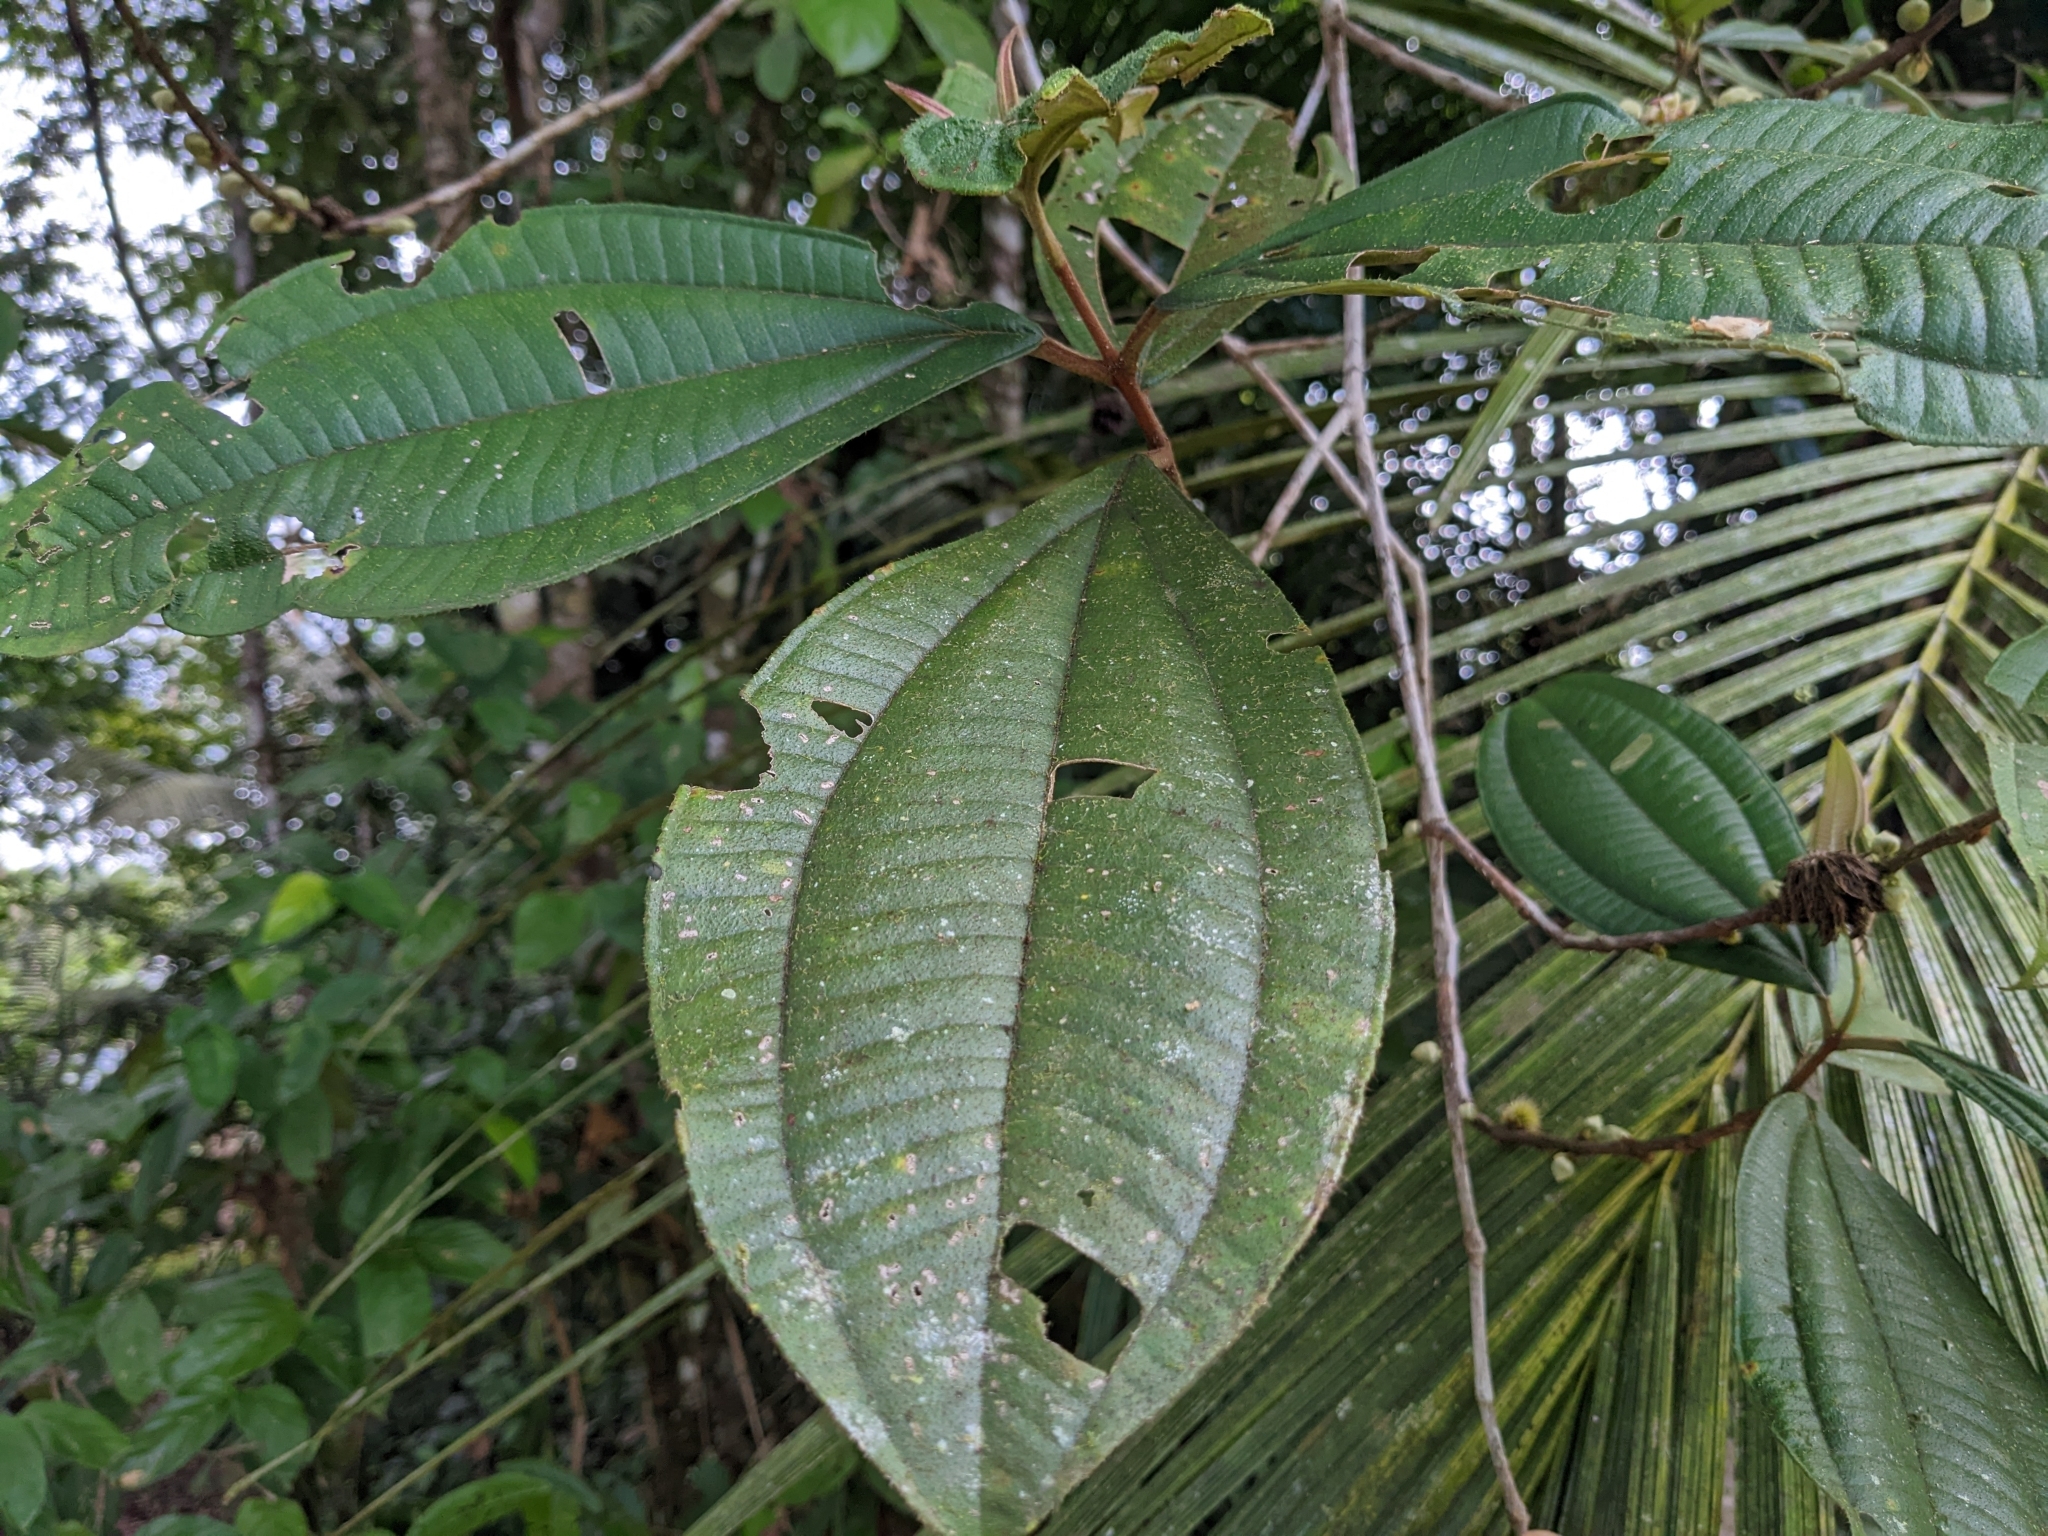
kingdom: Plantae
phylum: Tracheophyta
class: Magnoliopsida
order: Myrtales
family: Melastomataceae
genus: Henriettea
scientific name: Henriettea succosa
